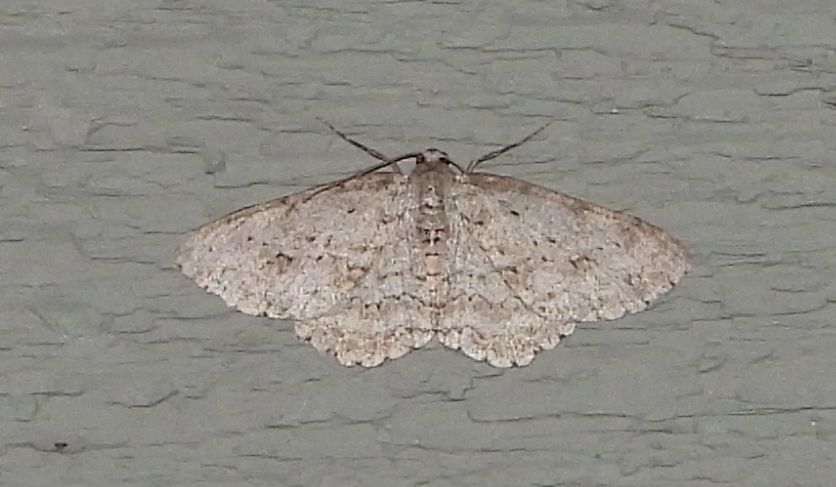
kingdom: Animalia
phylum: Arthropoda
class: Insecta
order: Lepidoptera
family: Geometridae
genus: Ectropis
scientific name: Ectropis crepuscularia
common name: Engrailed
